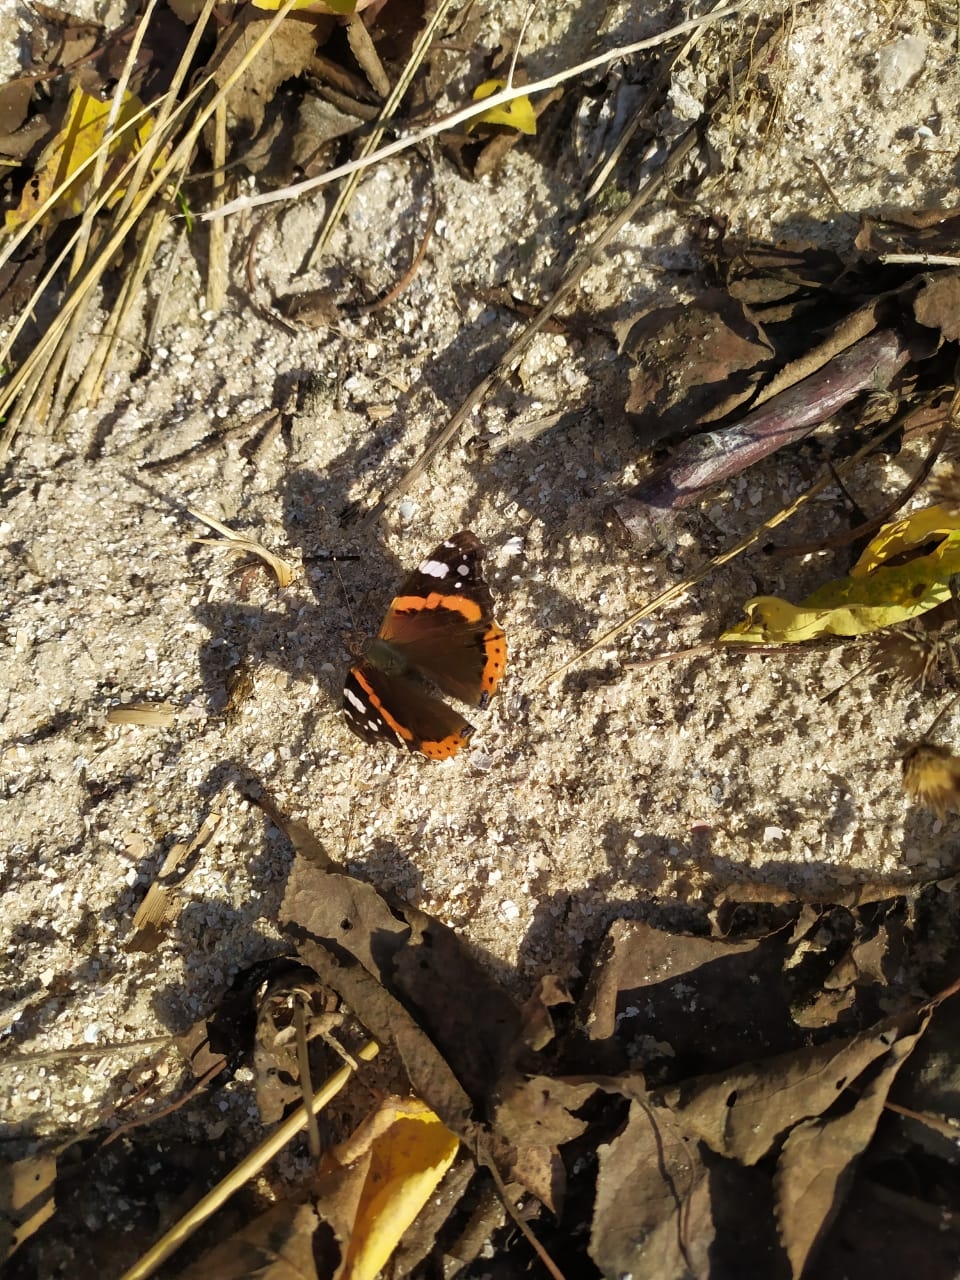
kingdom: Animalia
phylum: Arthropoda
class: Insecta
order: Lepidoptera
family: Nymphalidae
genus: Vanessa
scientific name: Vanessa atalanta
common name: Red admiral
